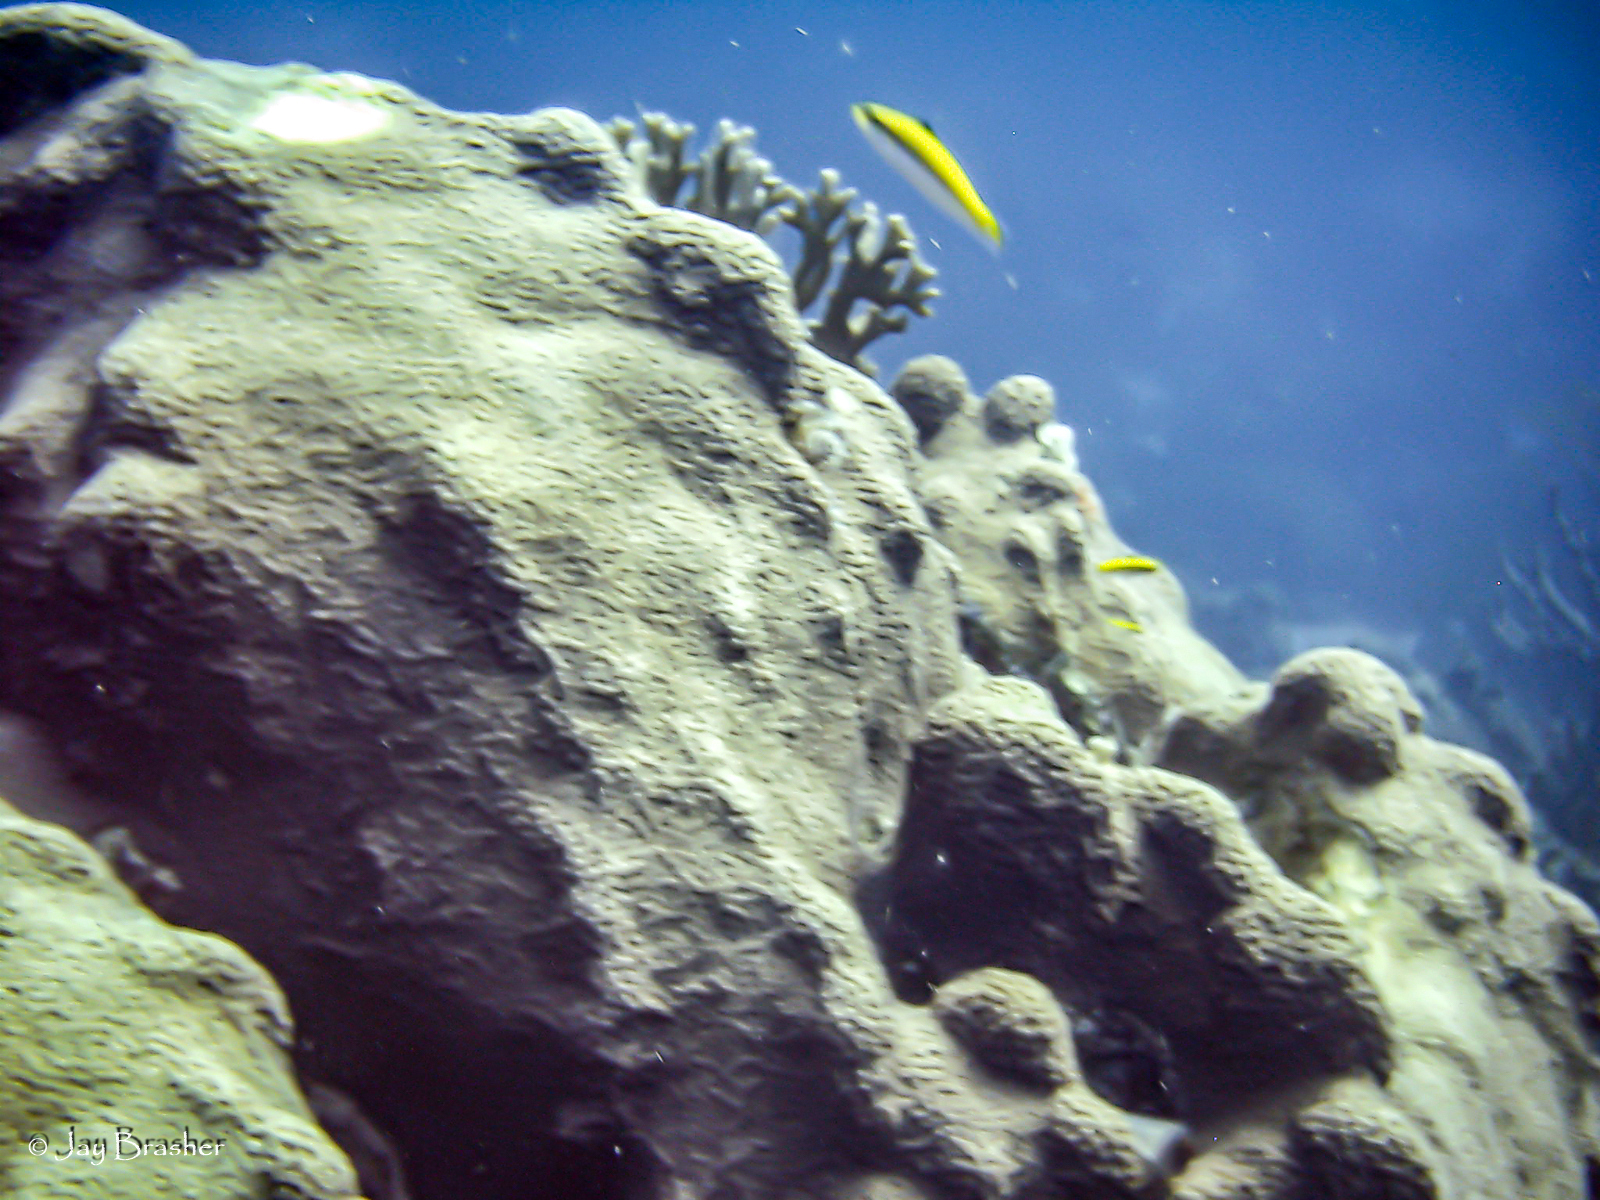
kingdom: Animalia
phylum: Cnidaria
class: Anthozoa
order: Scleractinia
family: Merulinidae
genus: Orbicella
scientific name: Orbicella faveolata
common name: Mountainous star coral
